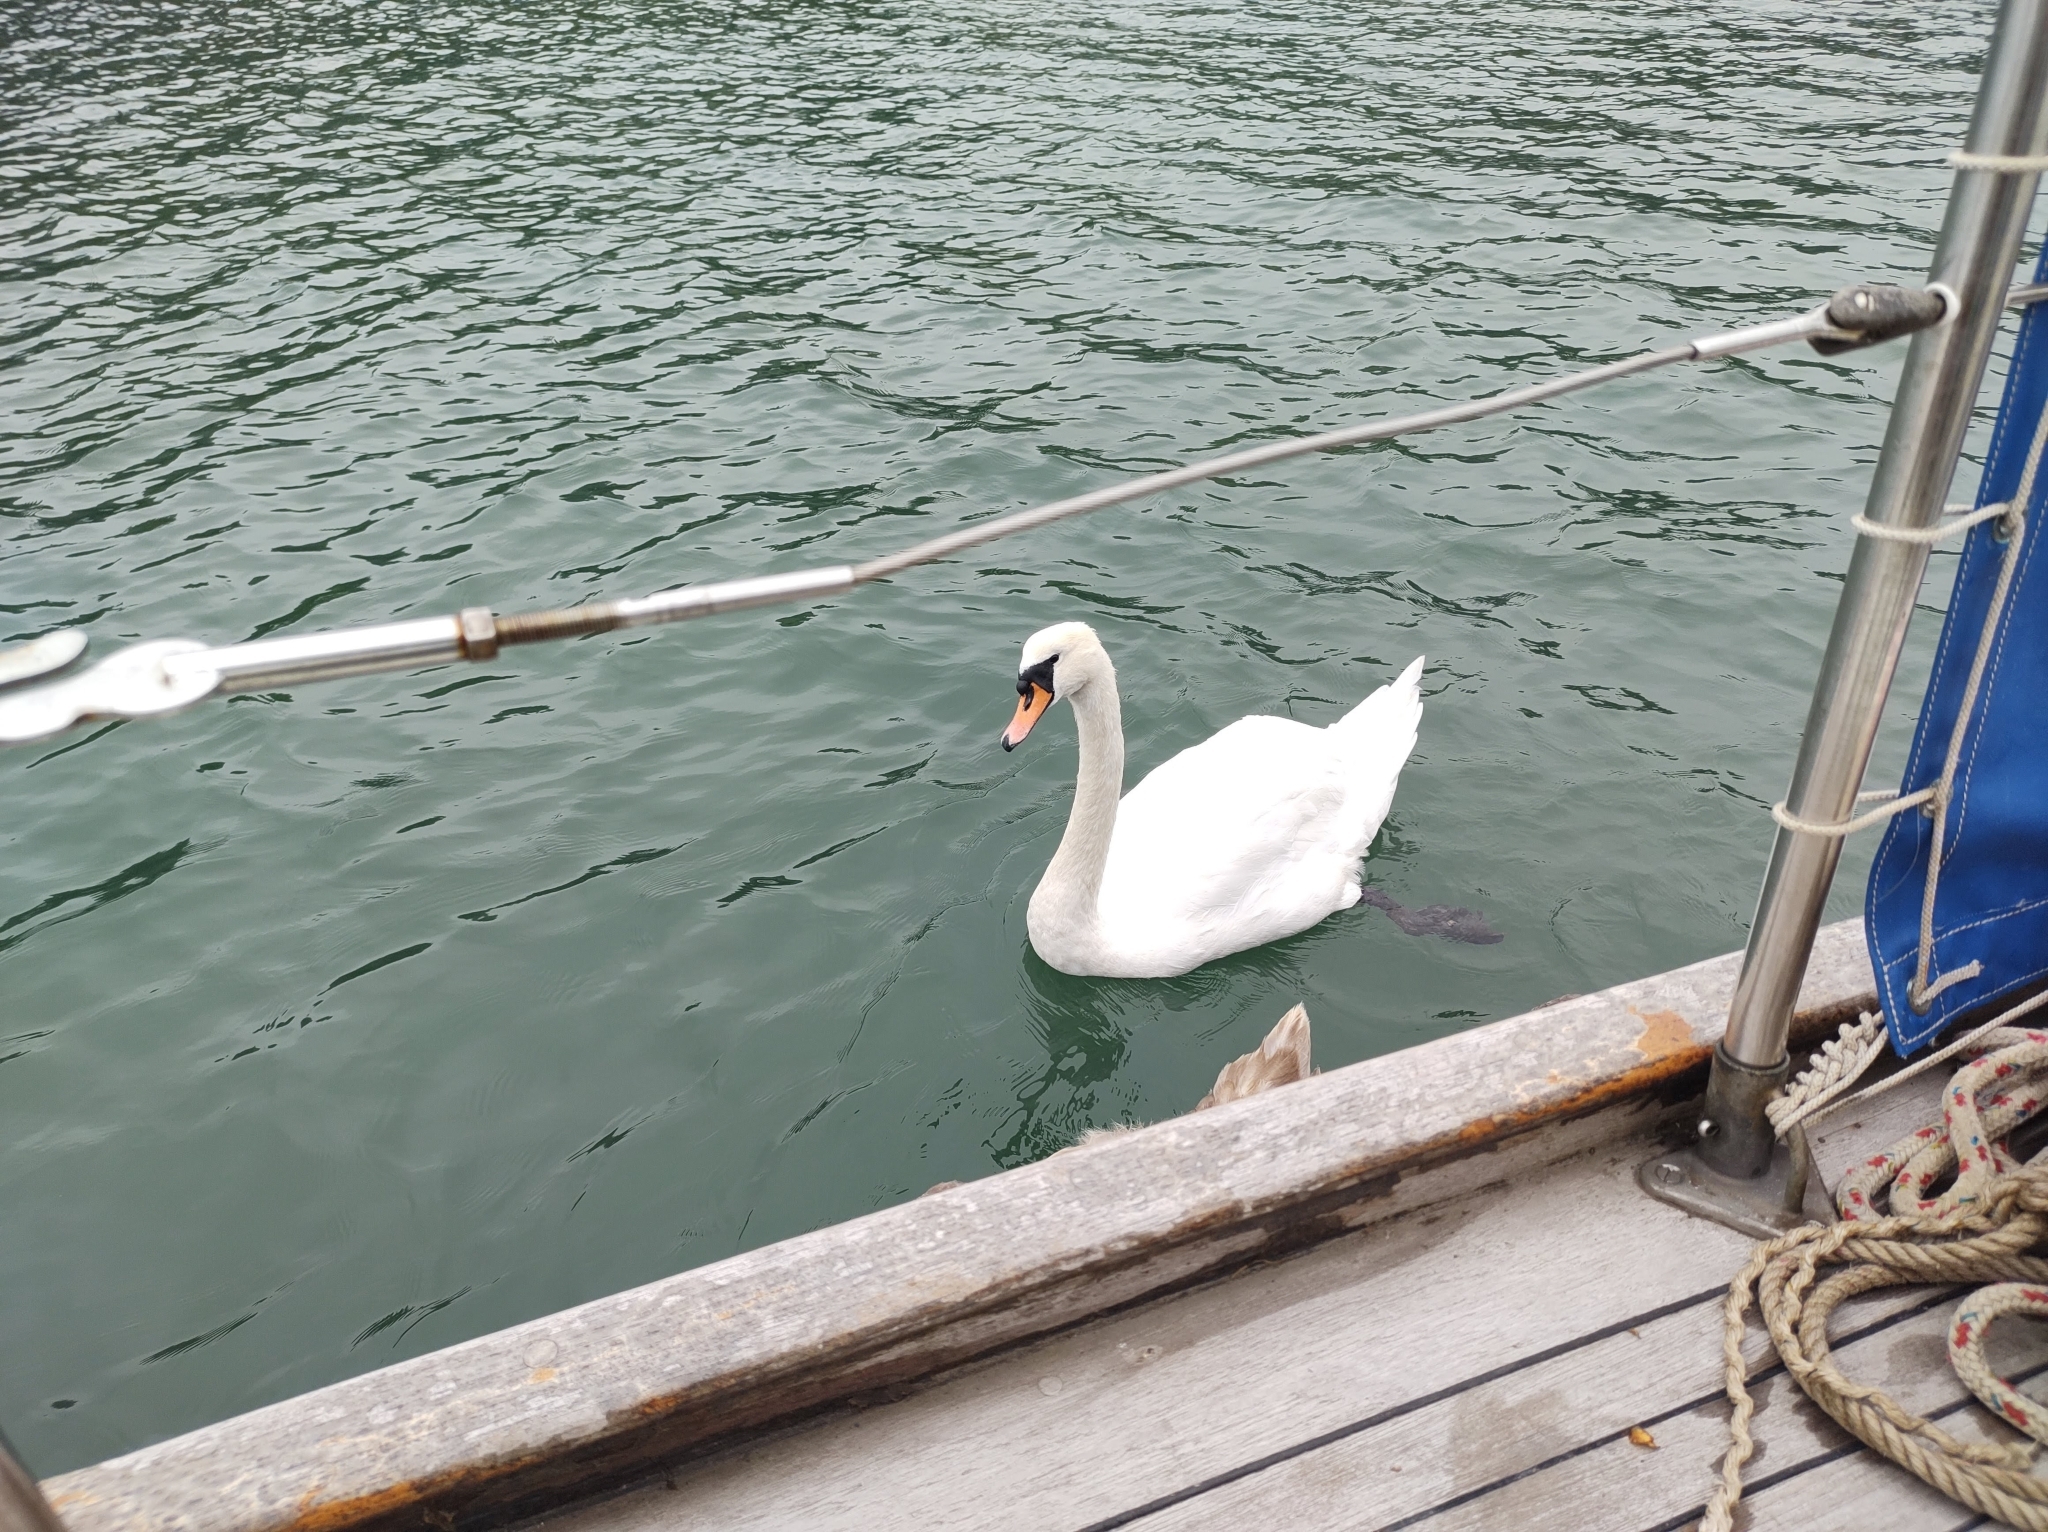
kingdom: Animalia
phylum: Chordata
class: Aves
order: Anseriformes
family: Anatidae
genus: Cygnus
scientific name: Cygnus olor
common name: Mute swan
